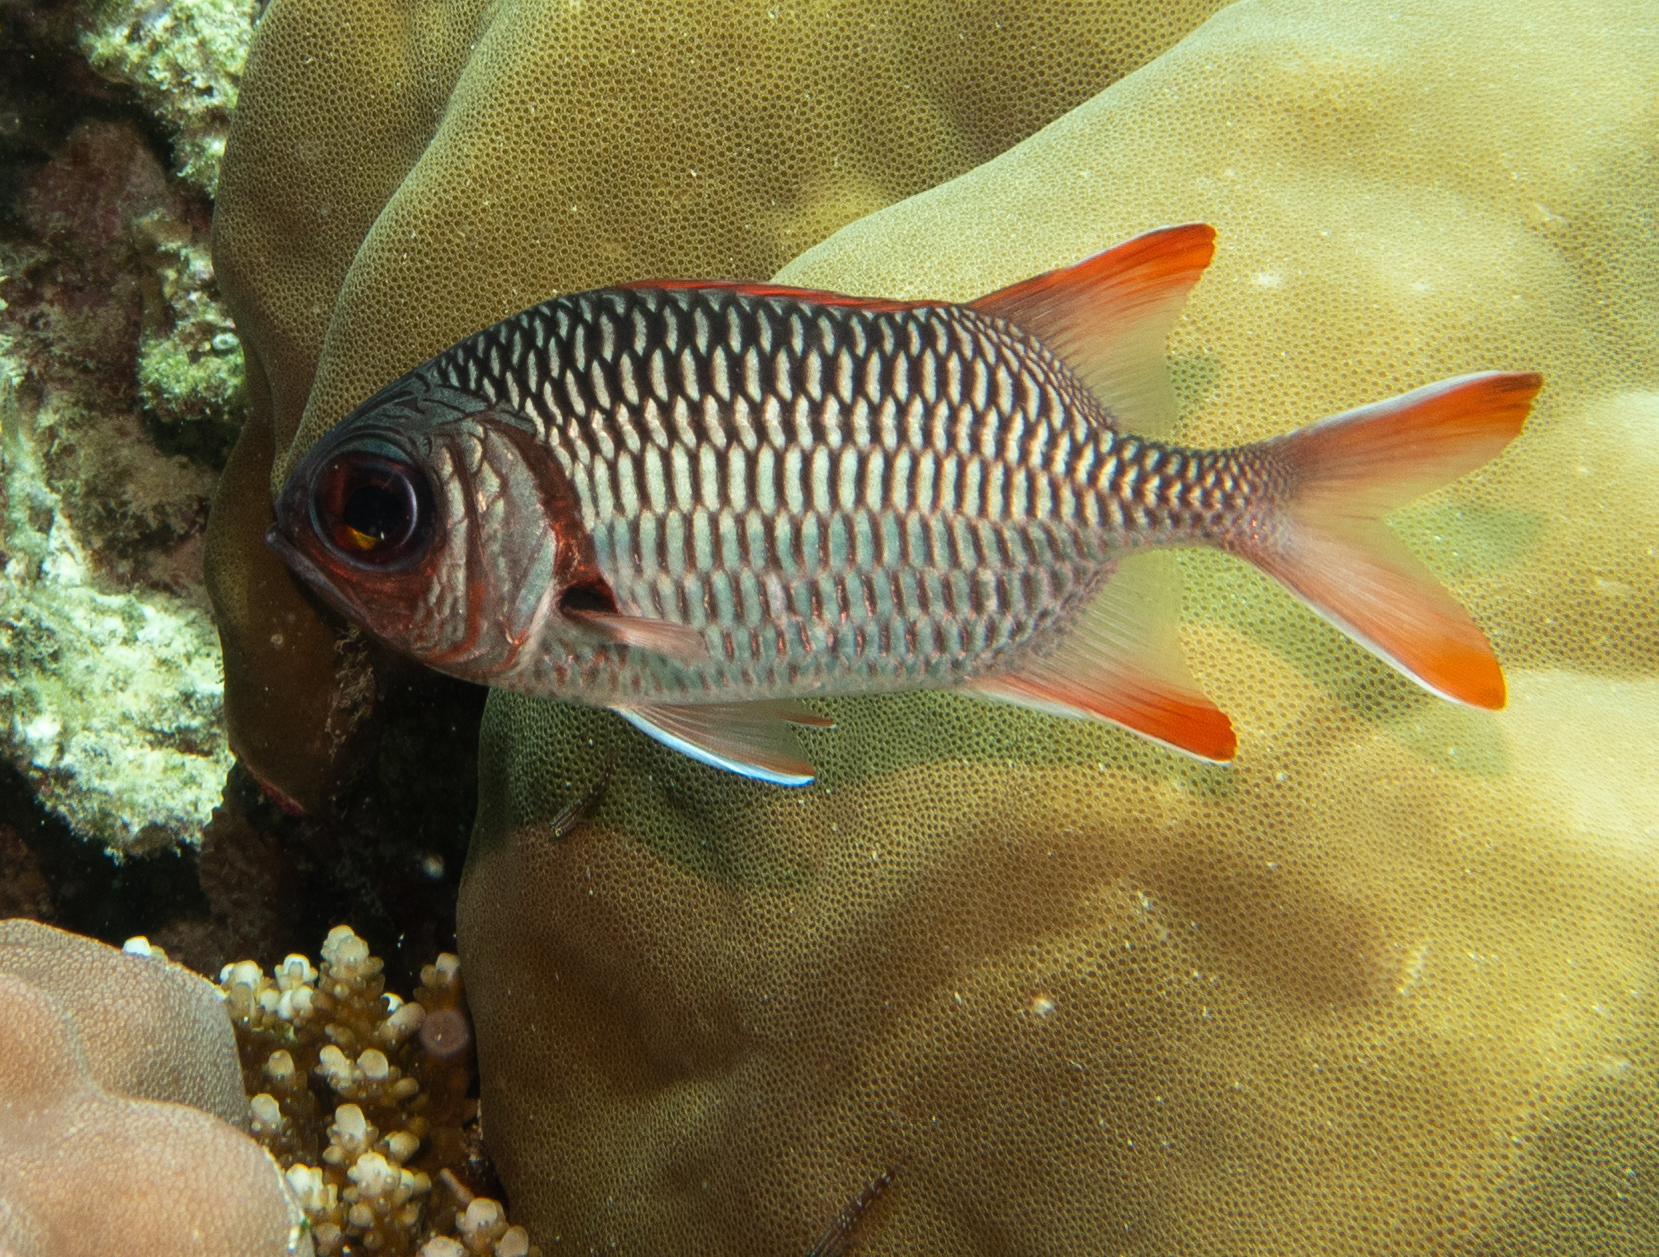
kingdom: Animalia
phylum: Chordata
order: Beryciformes
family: Holocentridae
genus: Myripristis
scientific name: Myripristis violacea
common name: Lattice soldierfish
